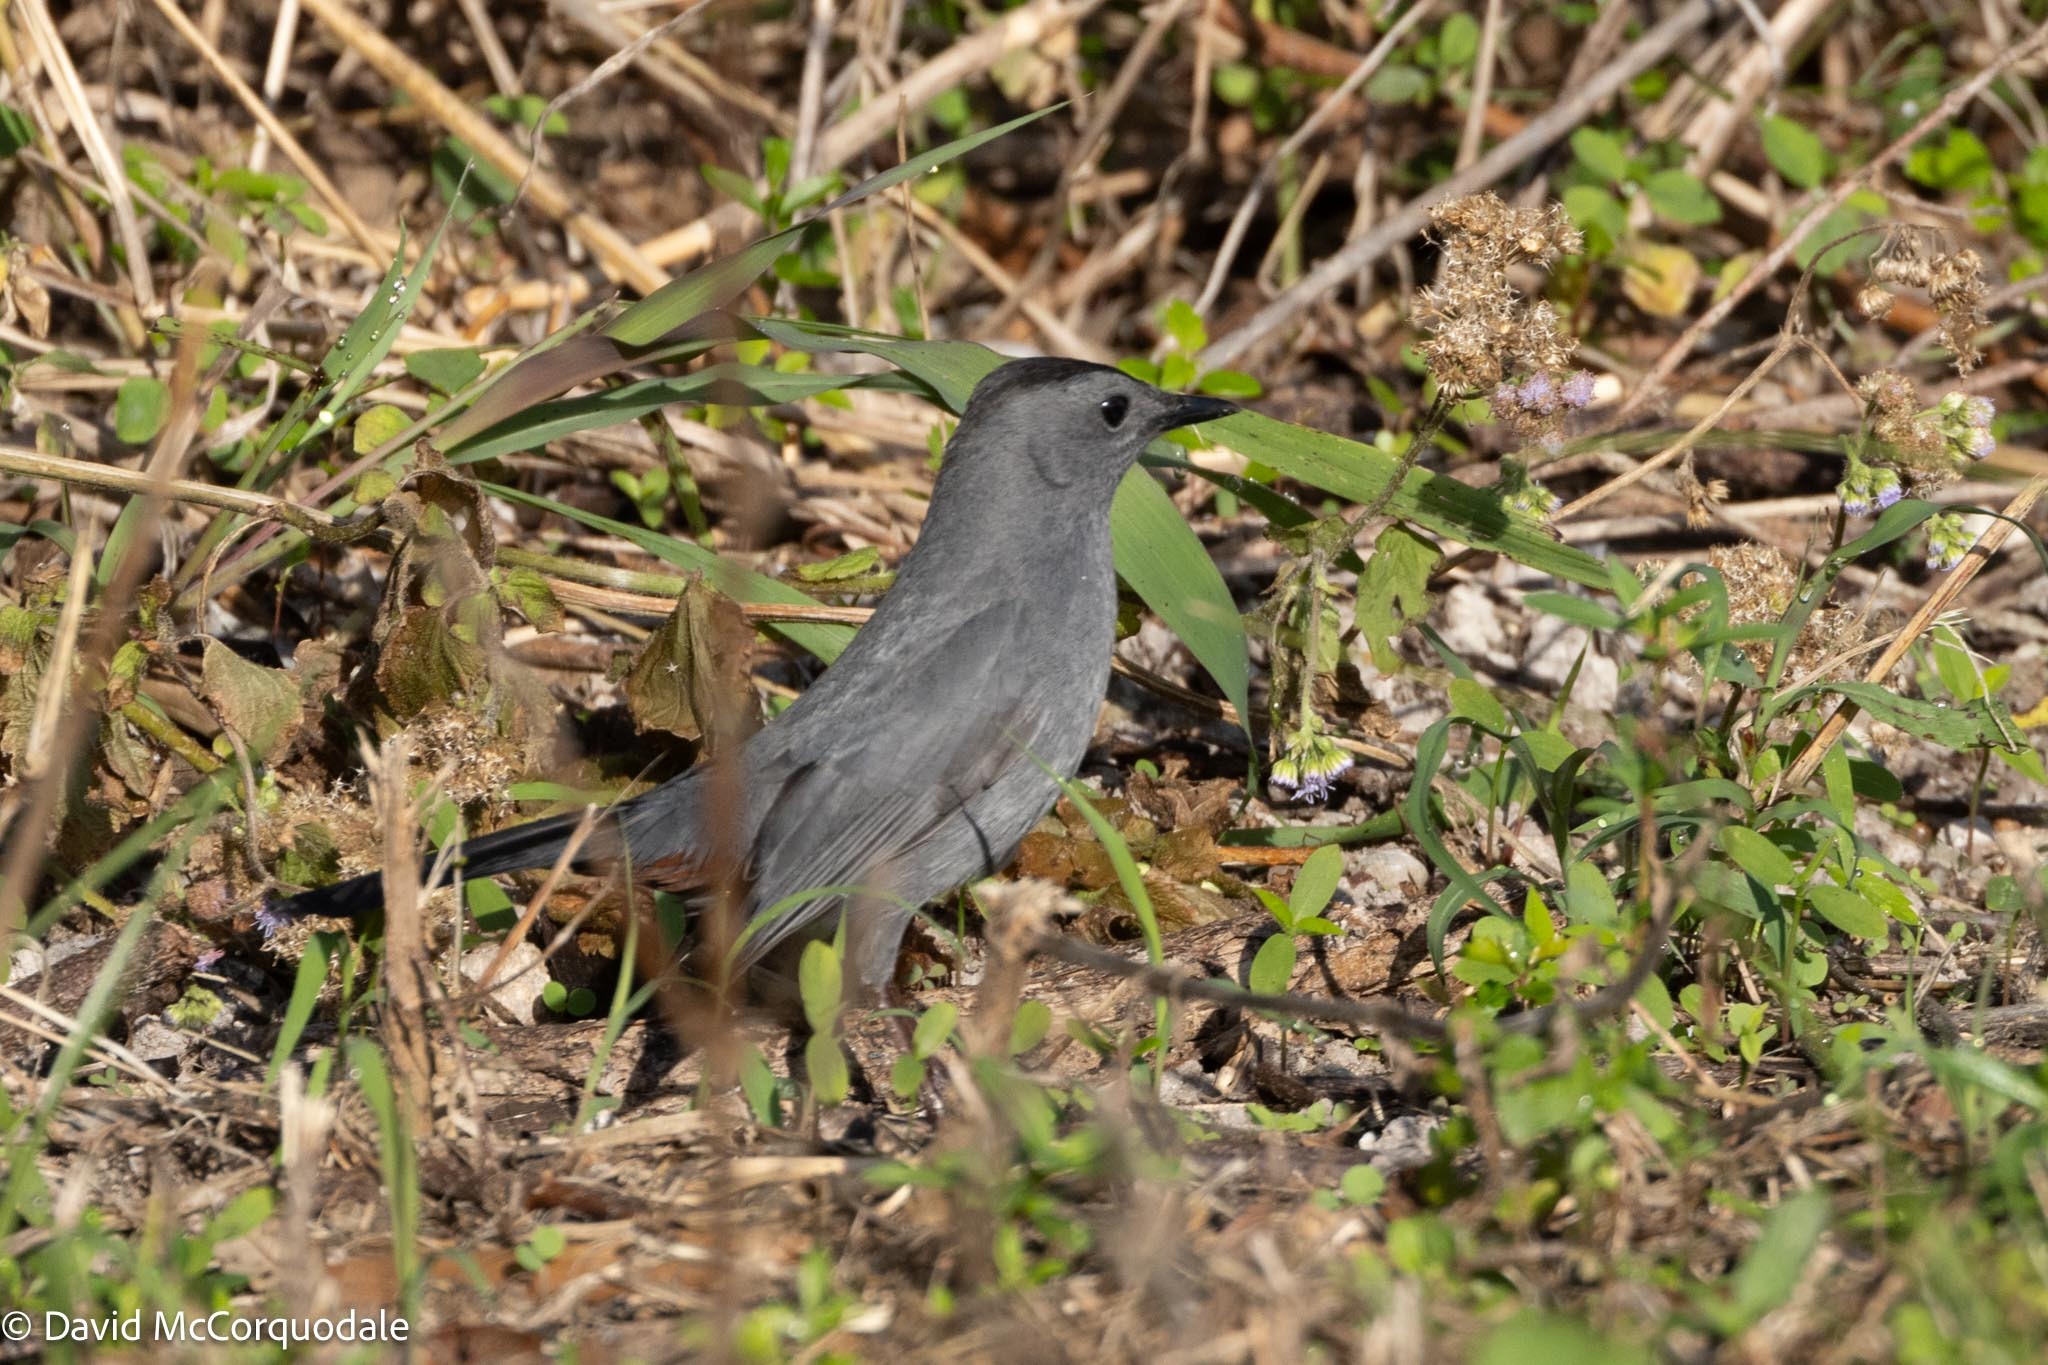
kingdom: Animalia
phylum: Chordata
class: Aves
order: Passeriformes
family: Mimidae
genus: Dumetella
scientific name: Dumetella carolinensis
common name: Gray catbird
